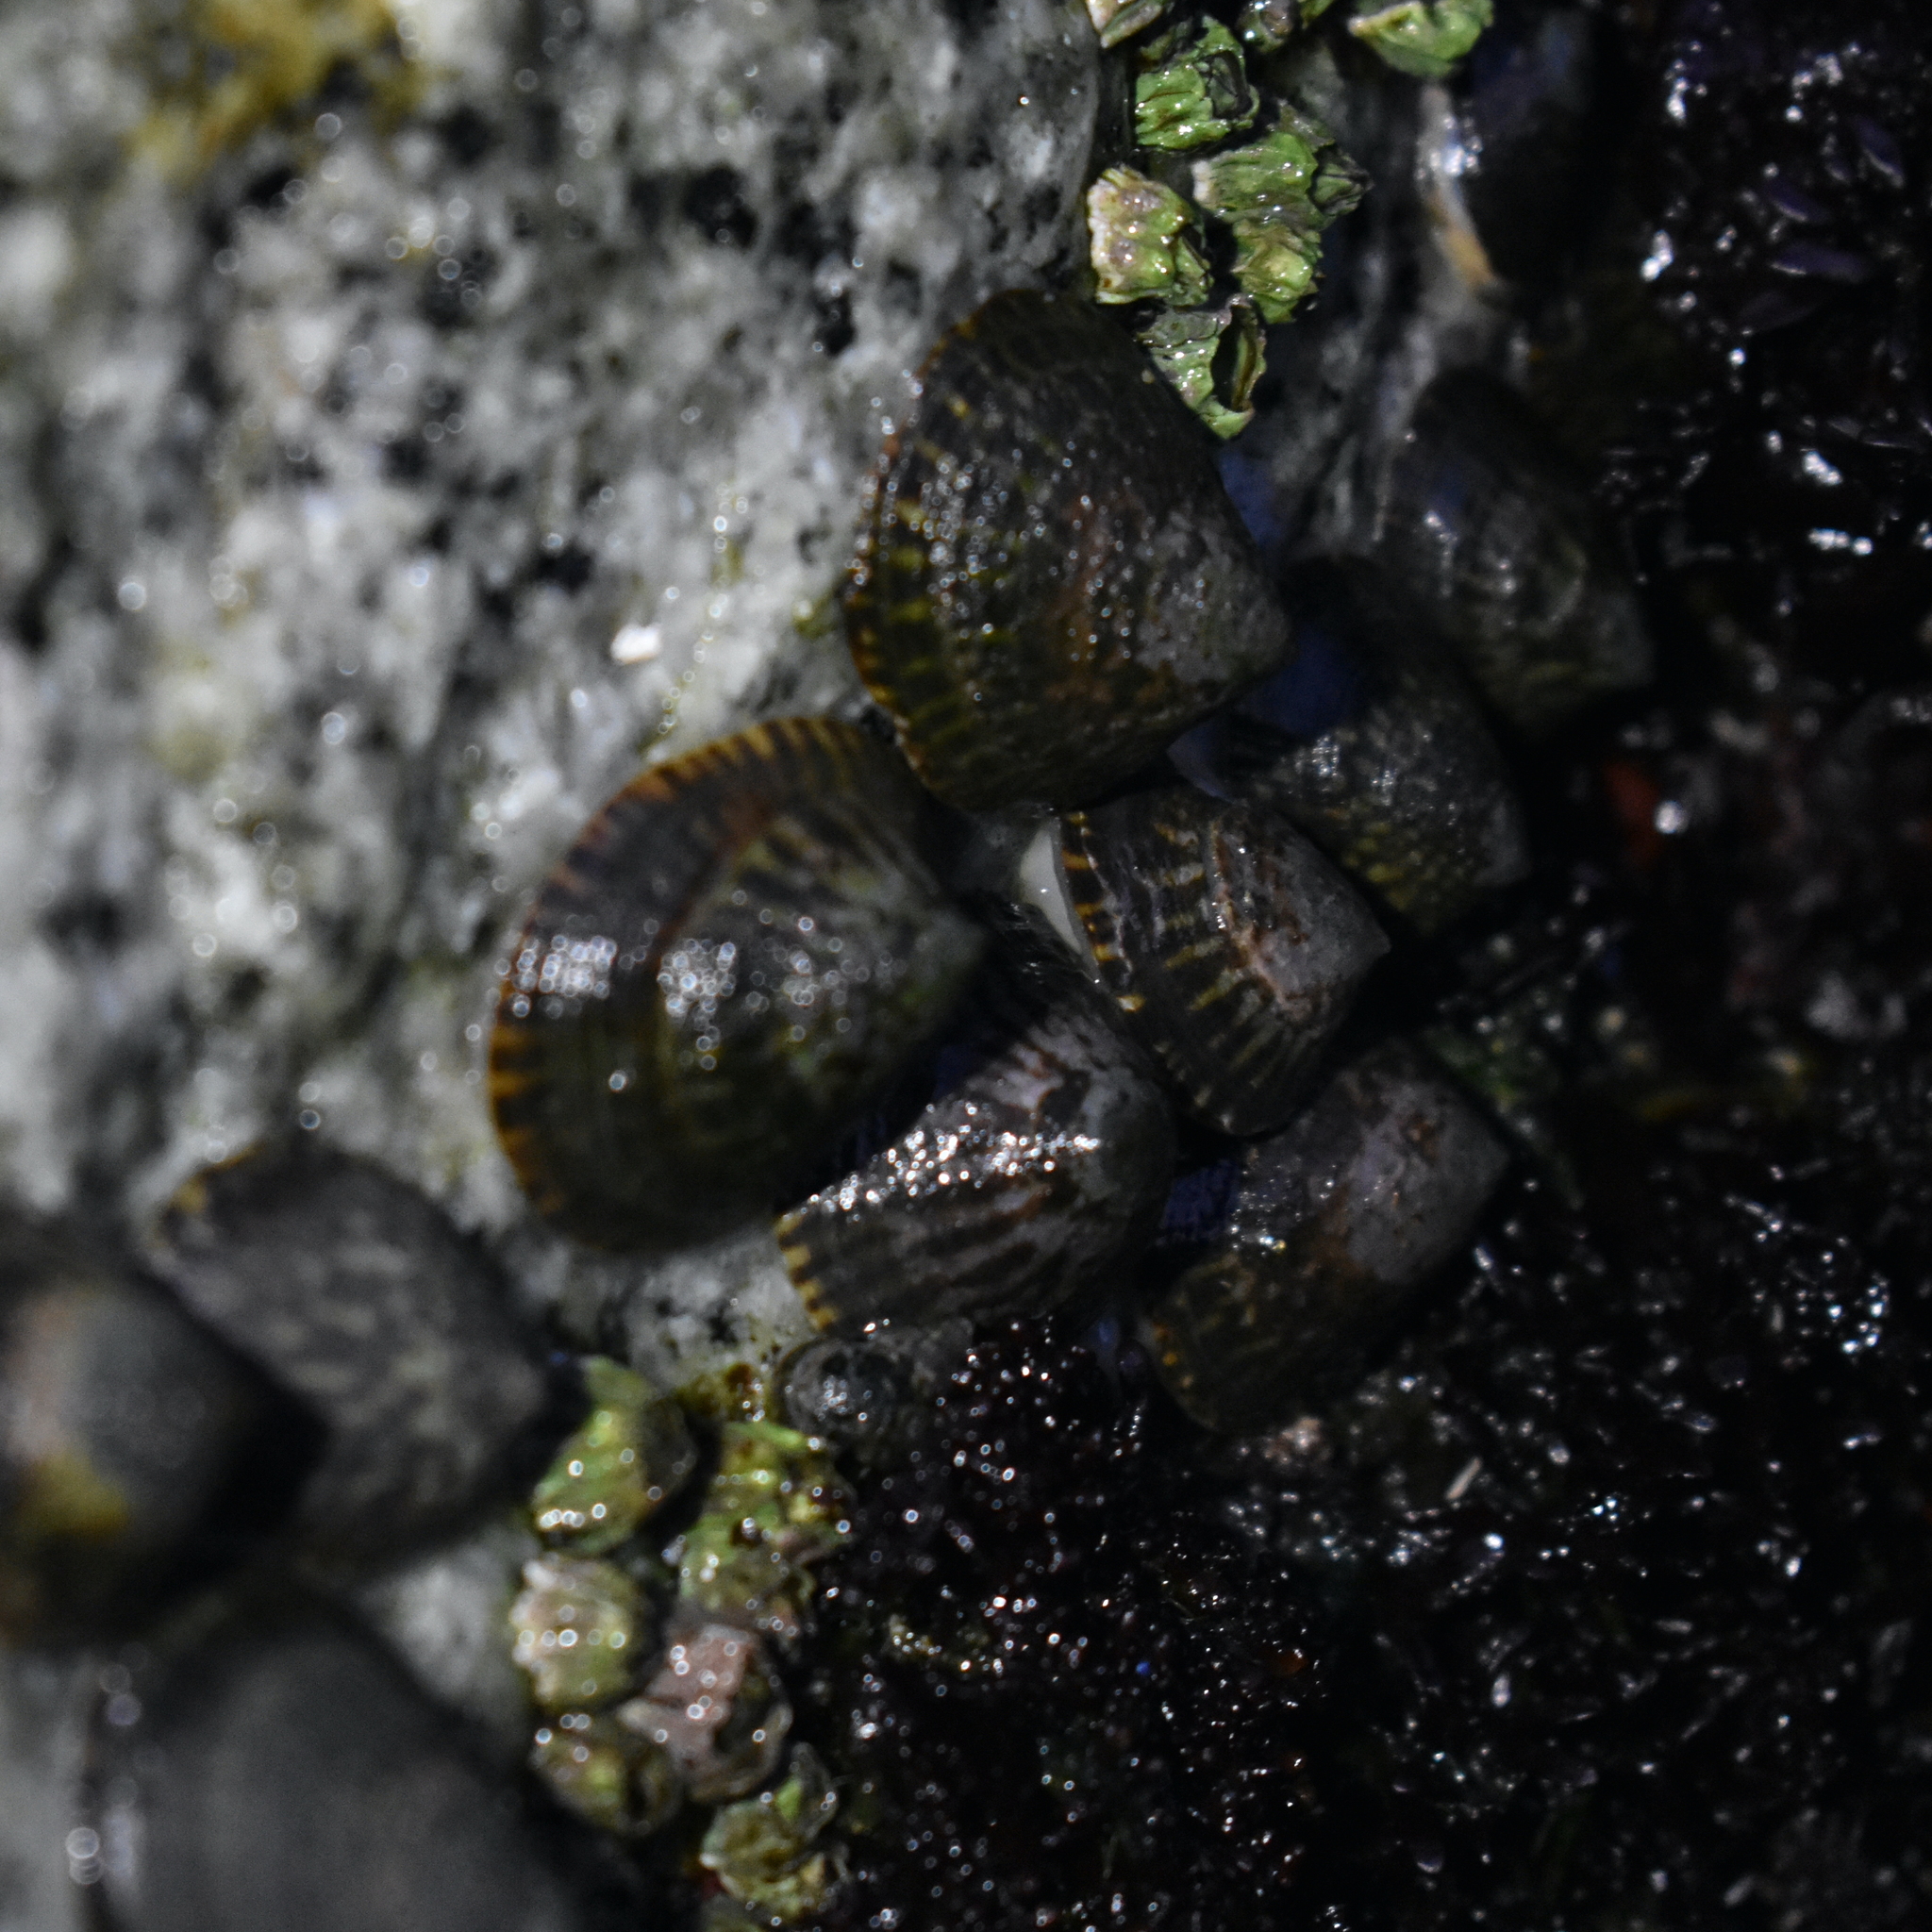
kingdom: Animalia
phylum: Mollusca
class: Gastropoda
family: Lottiidae
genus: Lottia
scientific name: Lottia persona
